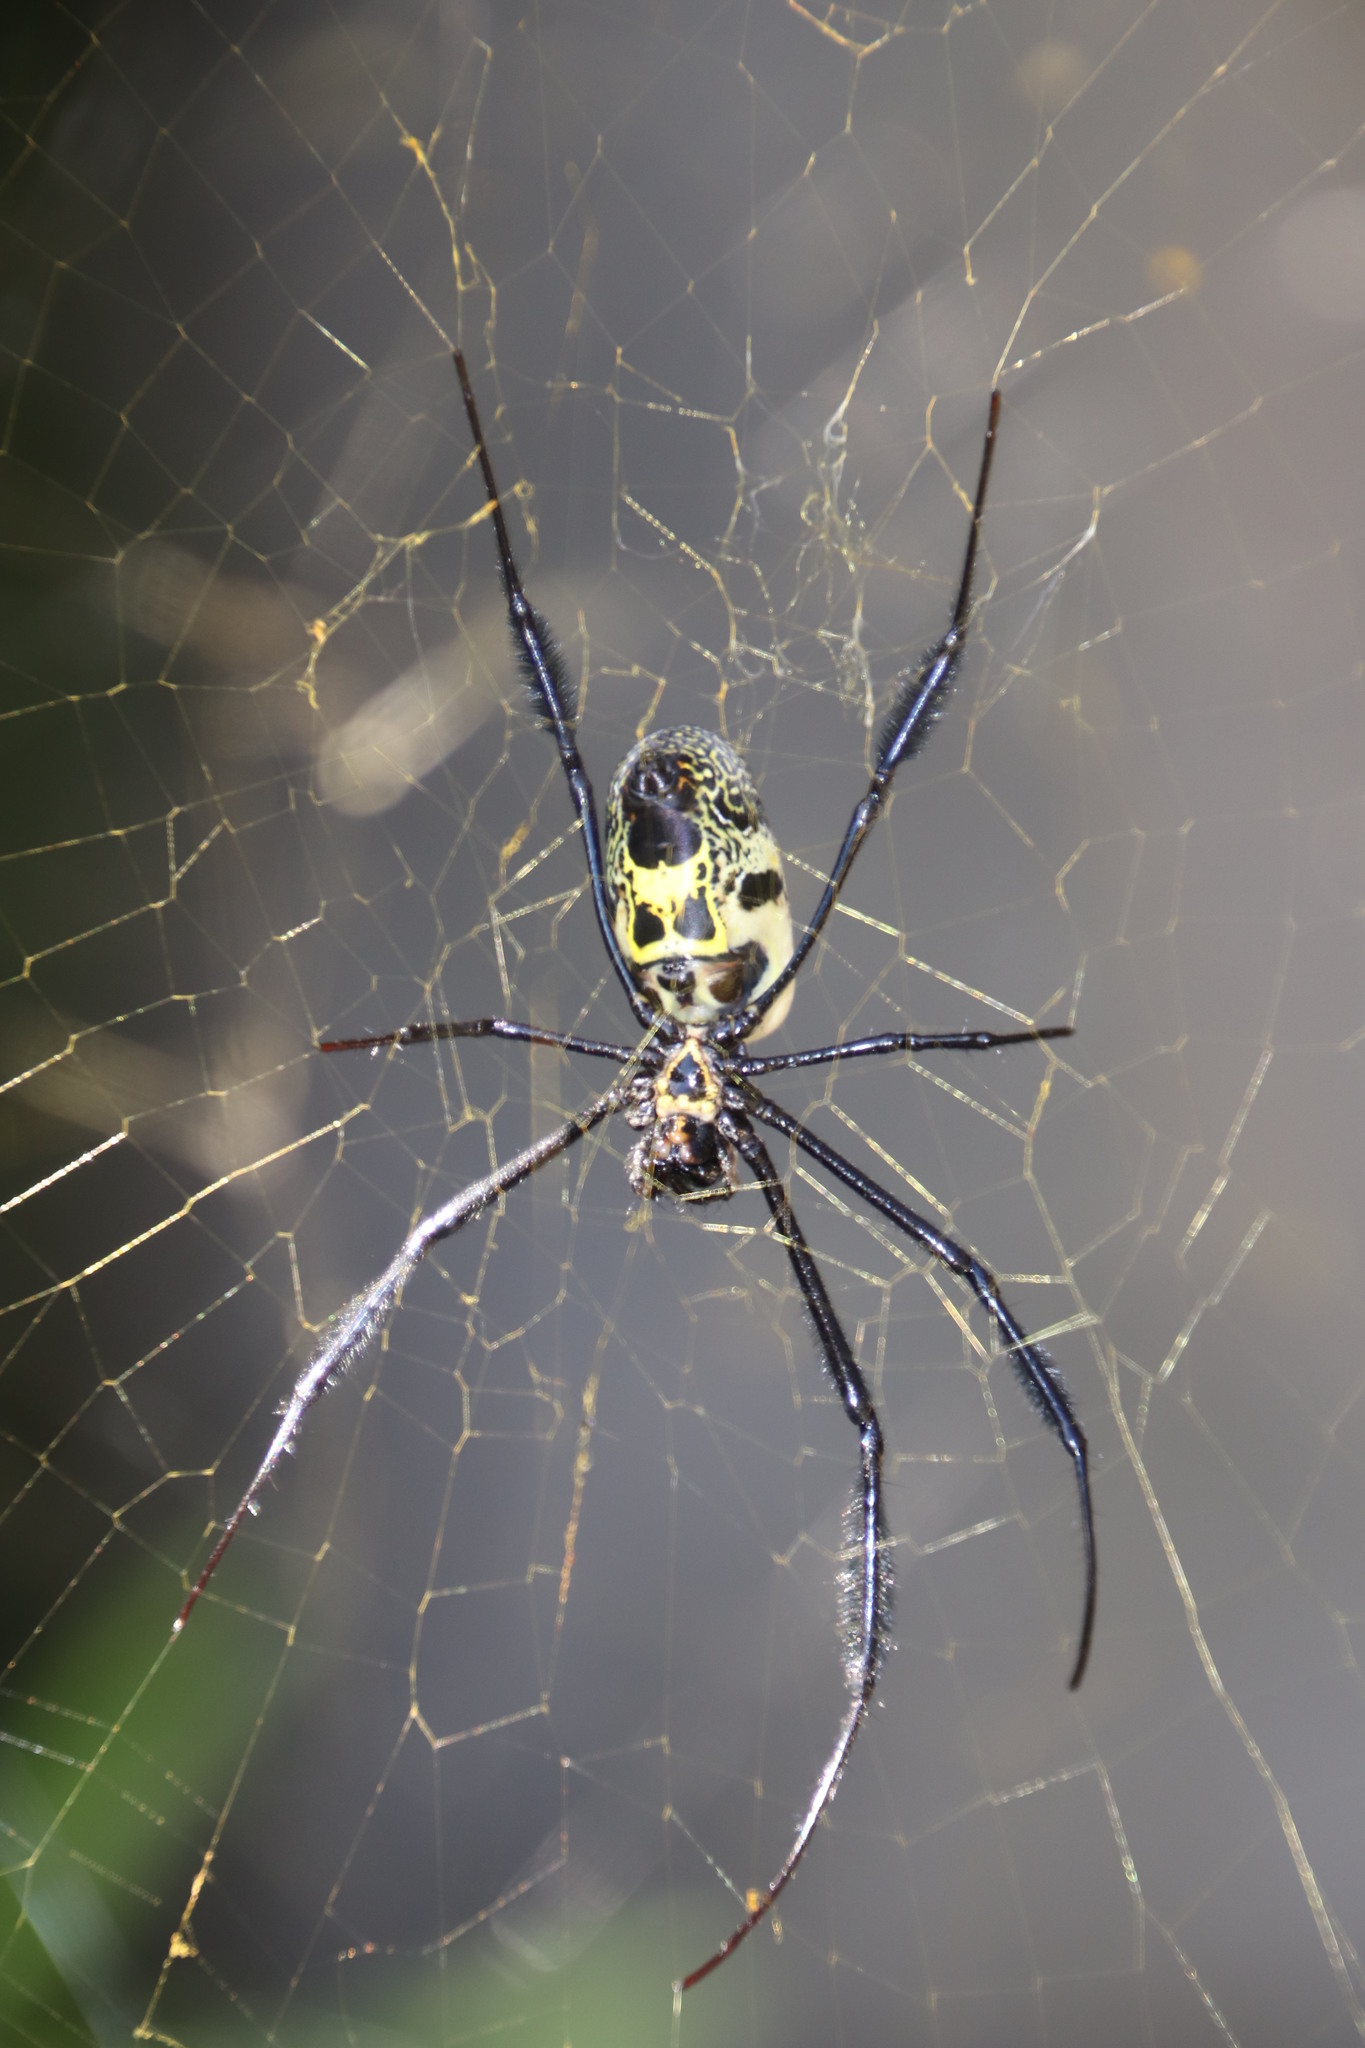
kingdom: Animalia
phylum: Arthropoda
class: Arachnida
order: Araneae
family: Araneidae
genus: Trichonephila
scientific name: Trichonephila fenestrata
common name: Hairy golden orb weaver
